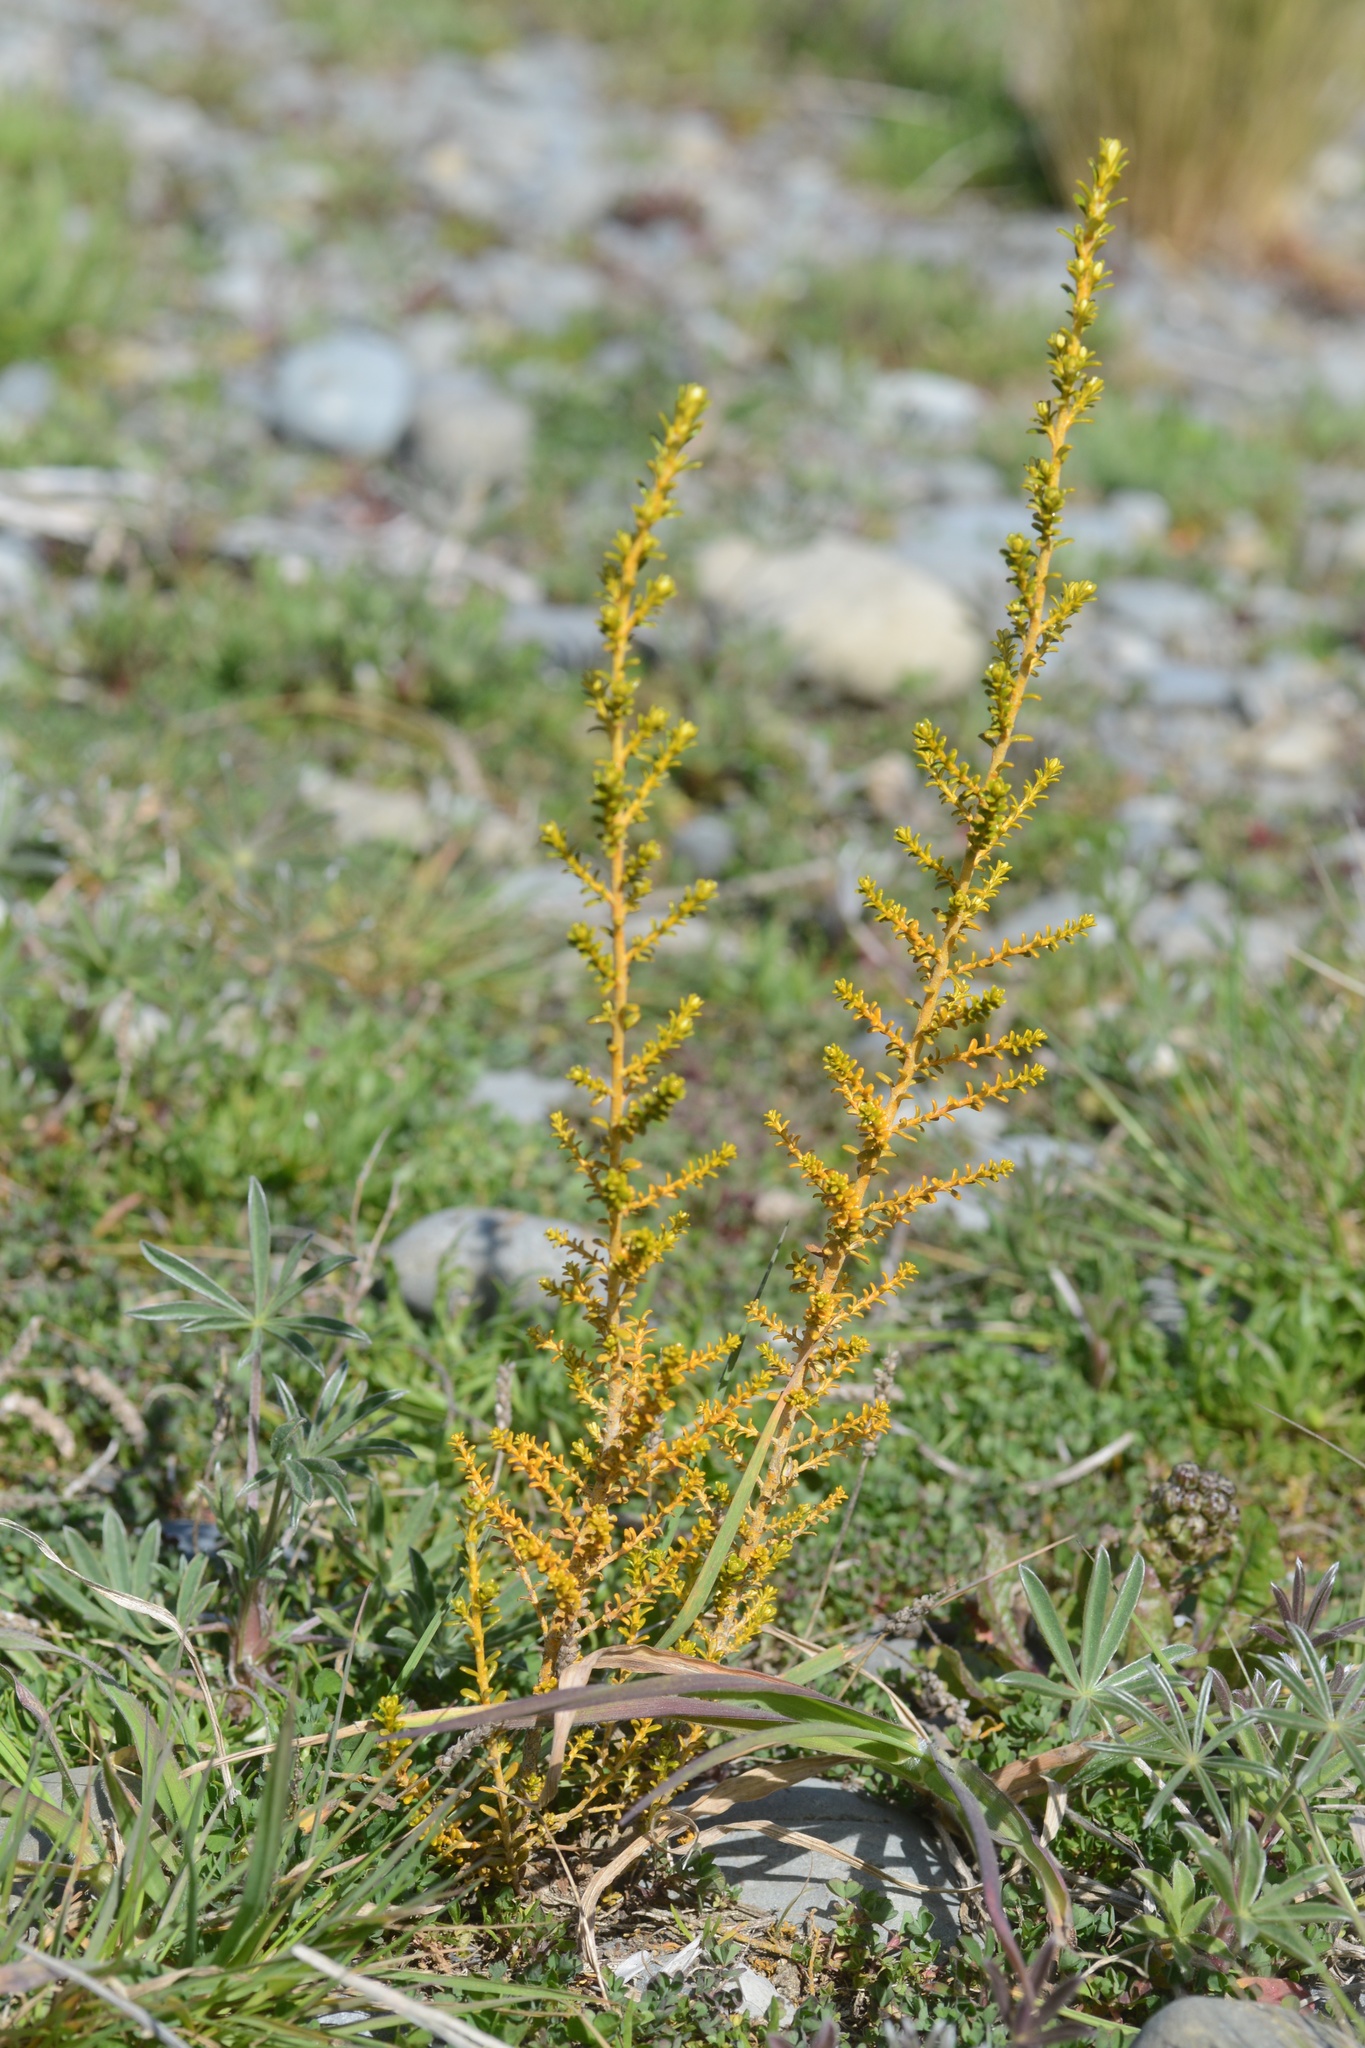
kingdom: Plantae
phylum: Tracheophyta
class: Magnoliopsida
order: Asterales
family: Asteraceae
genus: Ozothamnus
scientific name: Ozothamnus leptophyllus
